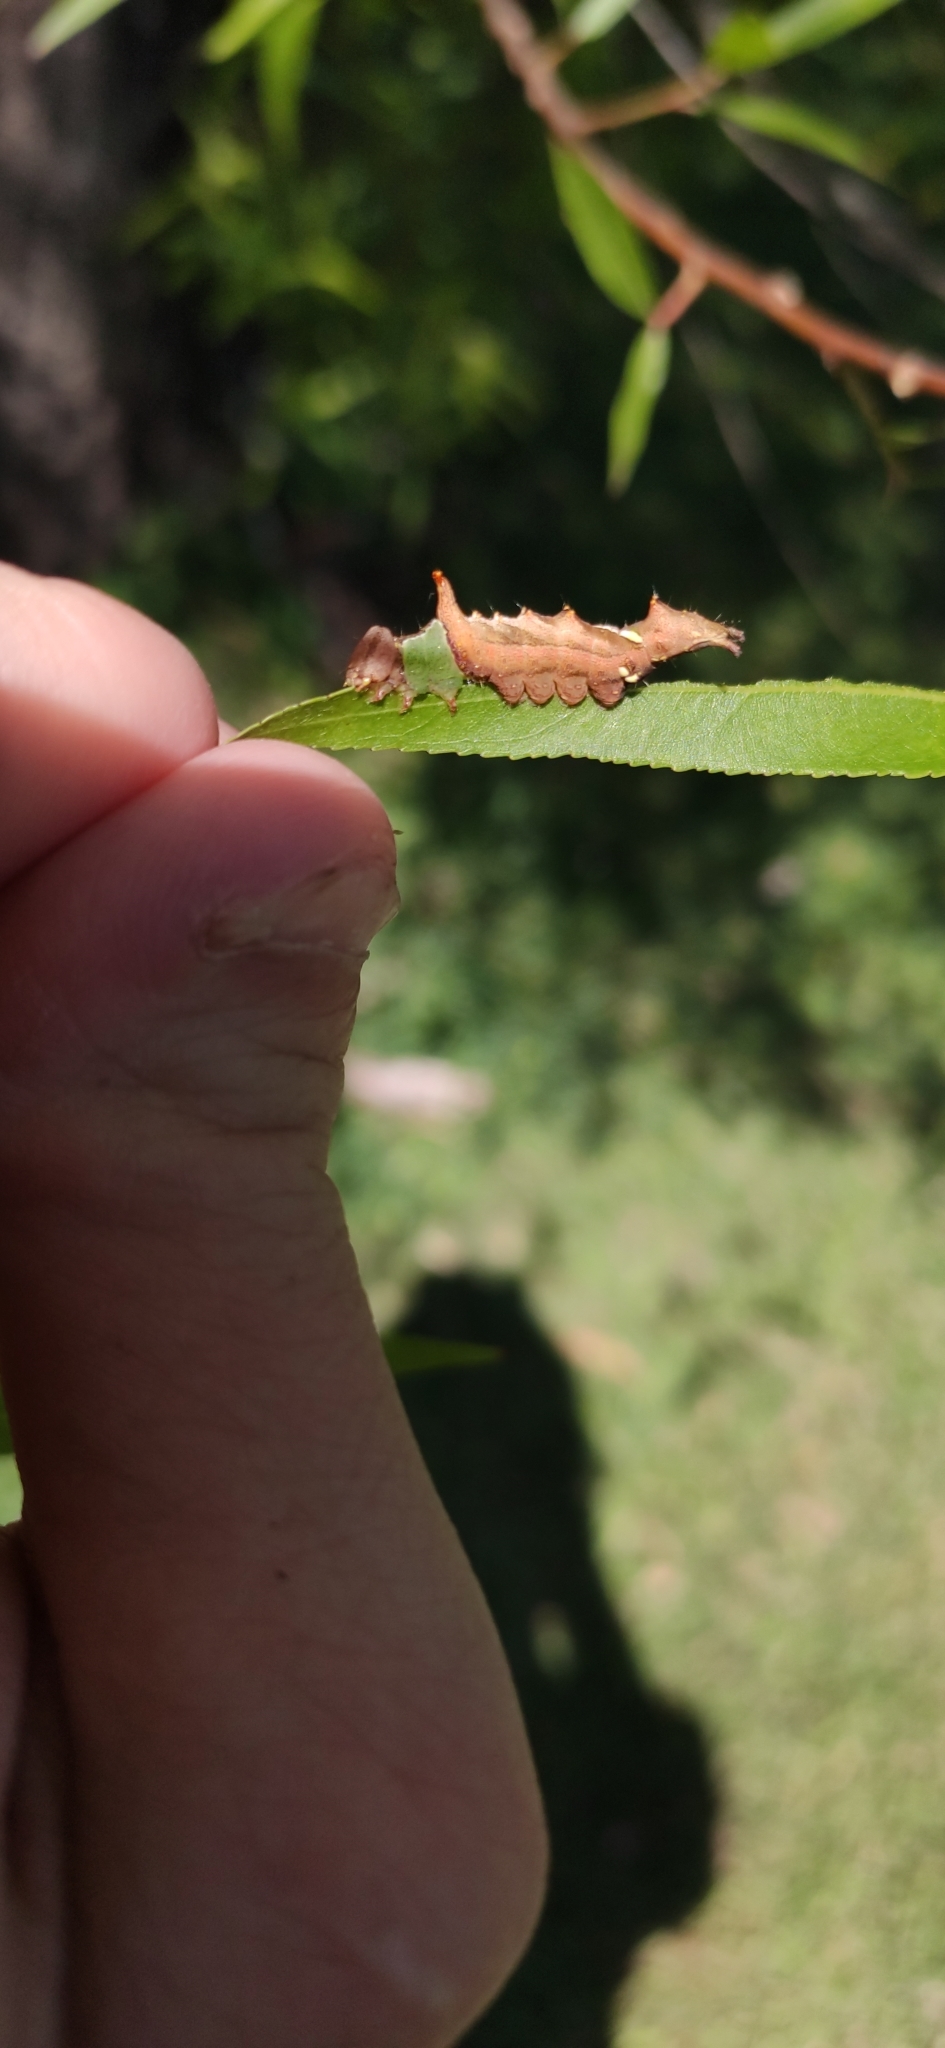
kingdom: Animalia
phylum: Arthropoda
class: Insecta
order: Lepidoptera
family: Notodontidae
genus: Schizura
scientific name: Schizura
